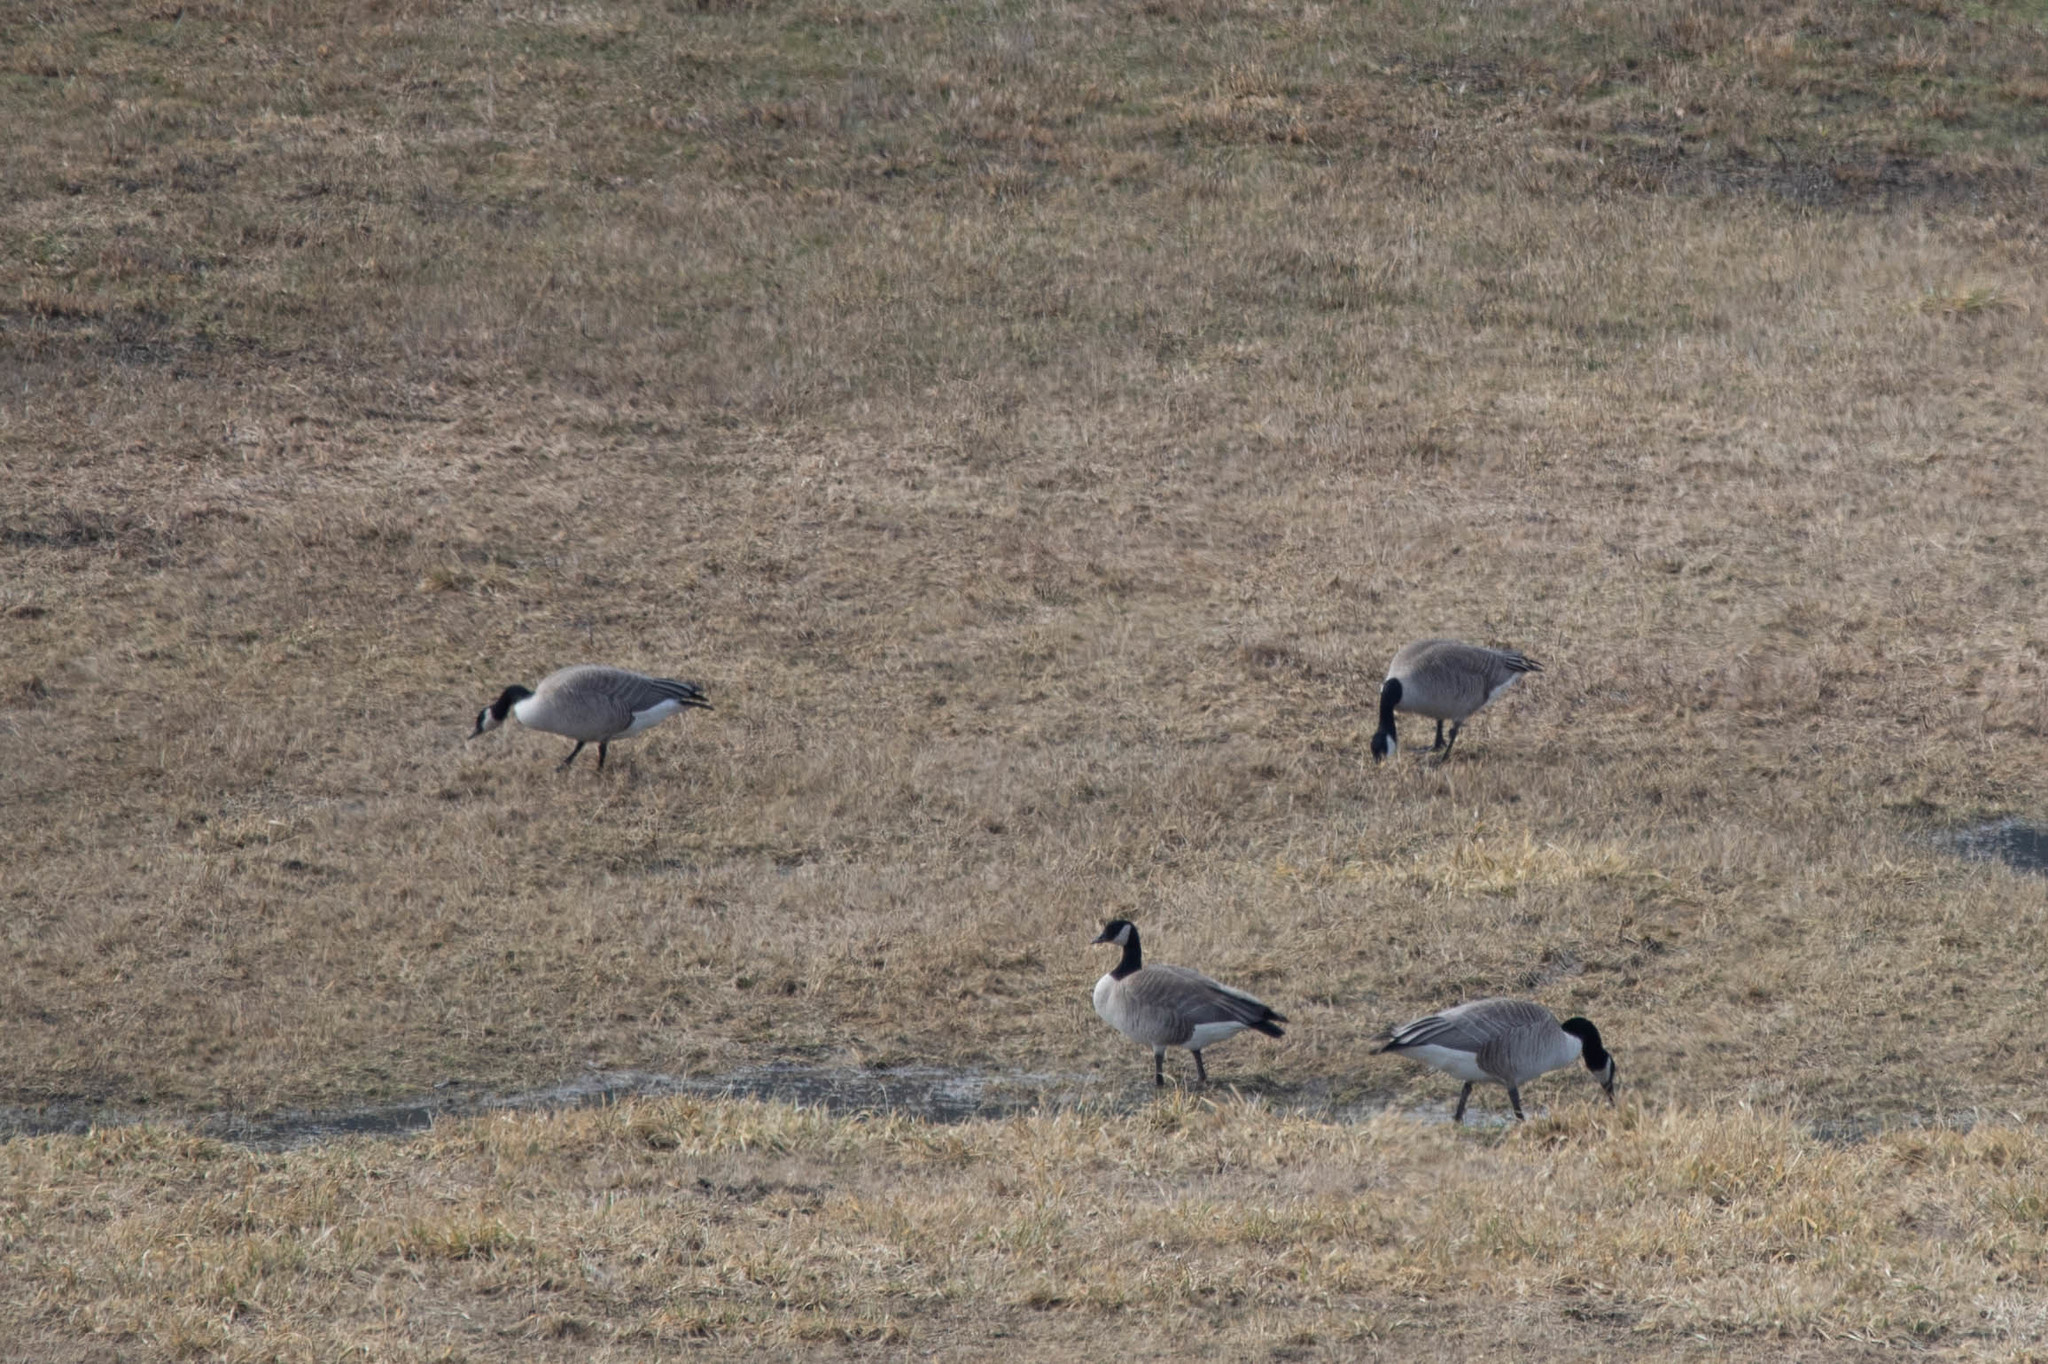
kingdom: Animalia
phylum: Chordata
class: Aves
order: Anseriformes
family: Anatidae
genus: Branta
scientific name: Branta canadensis
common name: Canada goose
